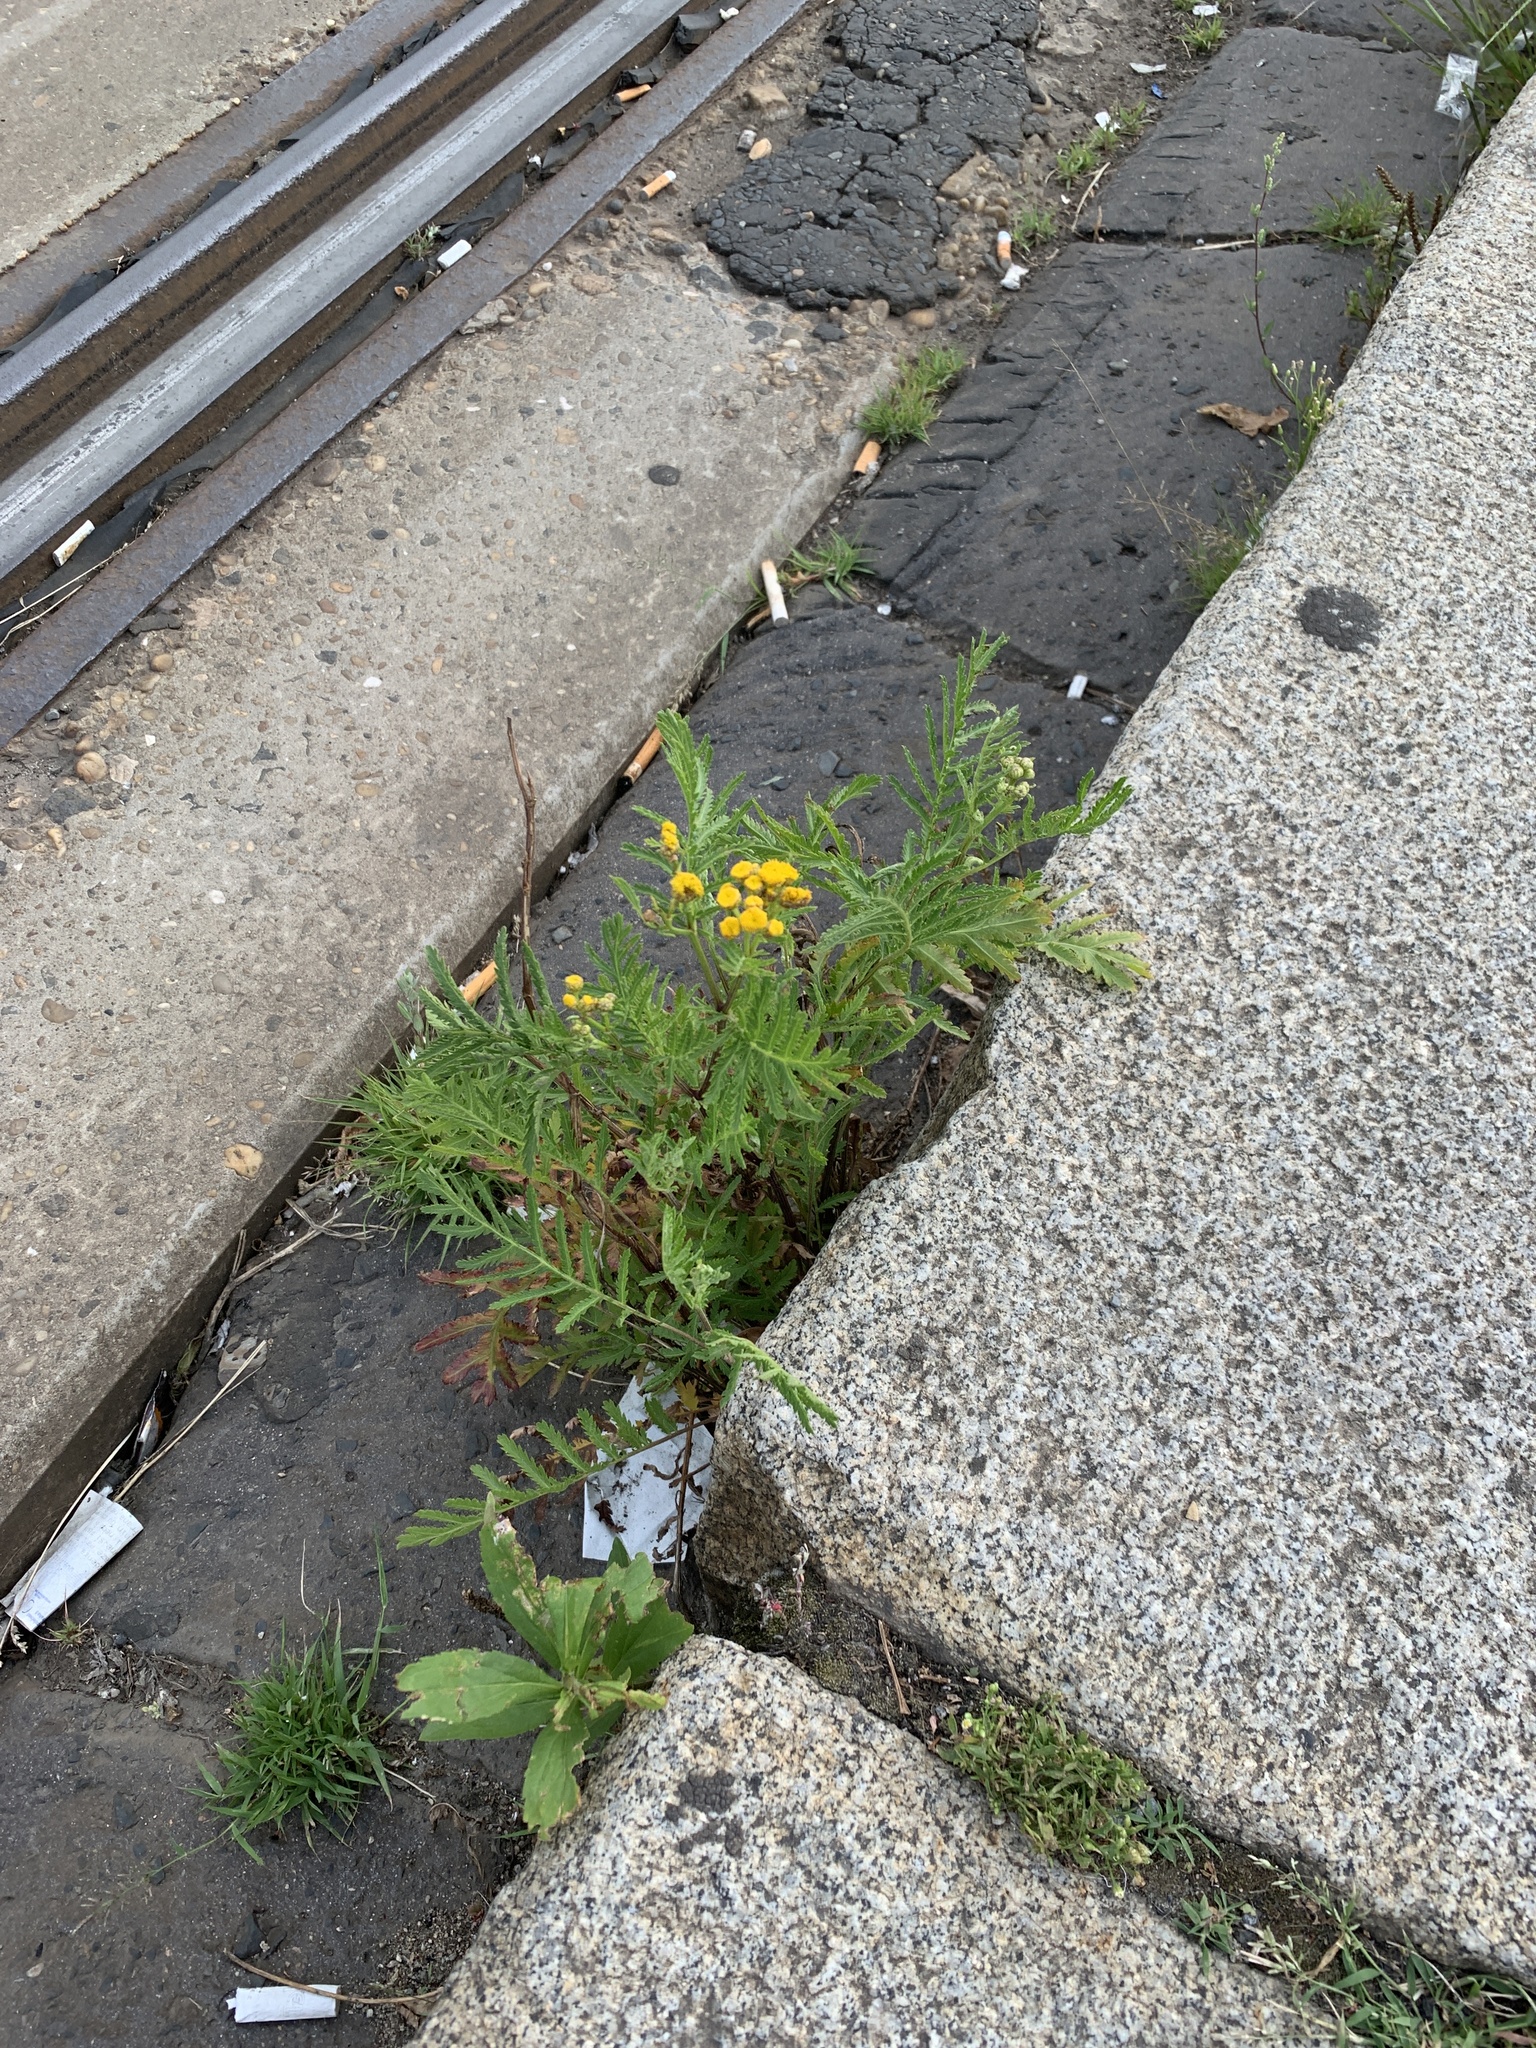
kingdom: Plantae
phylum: Tracheophyta
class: Magnoliopsida
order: Asterales
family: Asteraceae
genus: Tanacetum
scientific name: Tanacetum vulgare
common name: Common tansy
